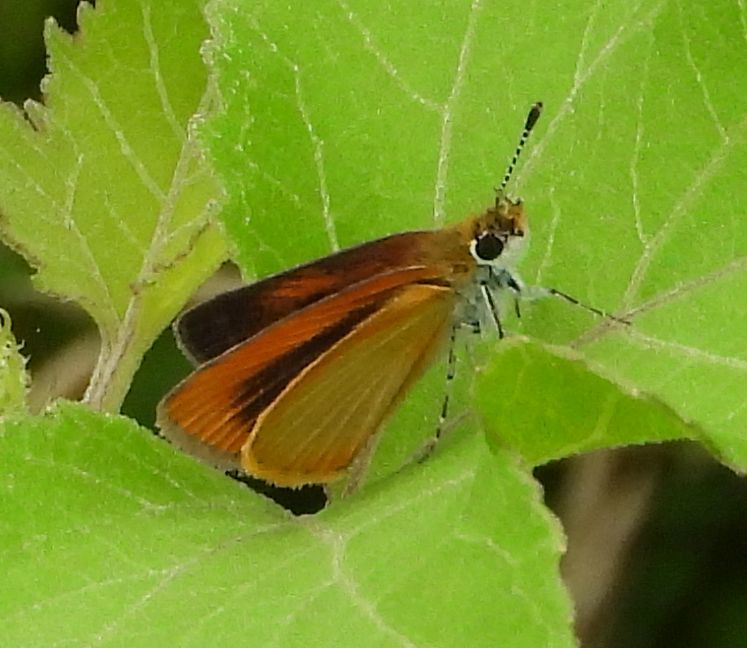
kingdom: Animalia
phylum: Arthropoda
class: Insecta
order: Lepidoptera
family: Hesperiidae
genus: Ancyloxypha
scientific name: Ancyloxypha numitor
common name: Least skipper
